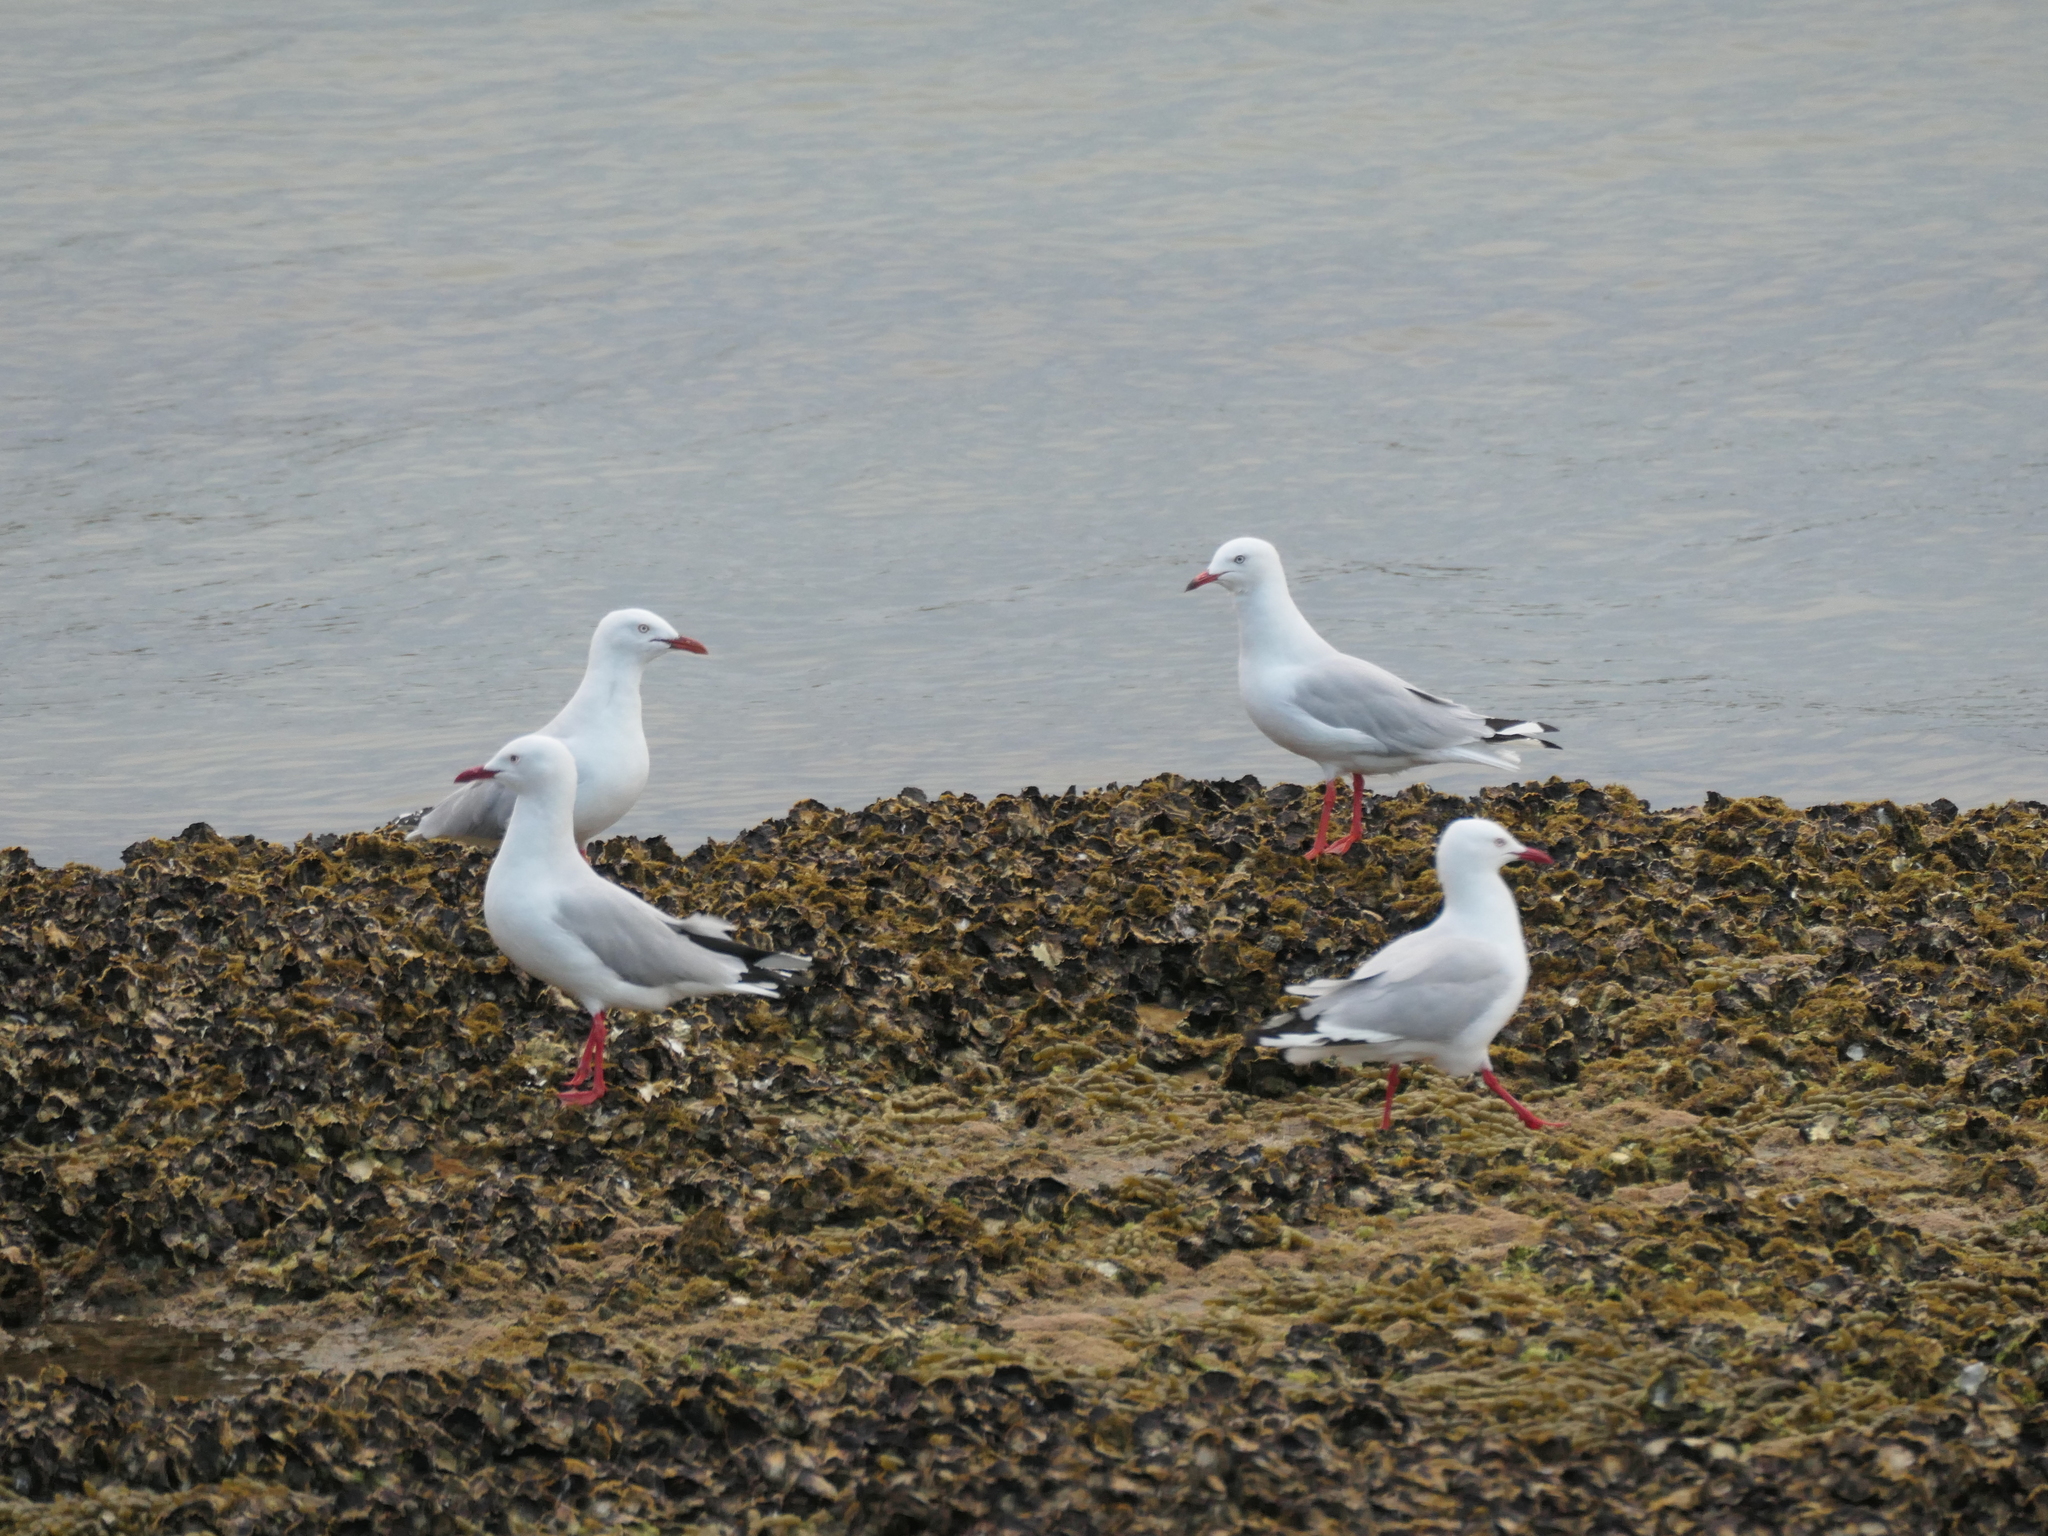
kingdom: Animalia
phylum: Chordata
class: Aves
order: Charadriiformes
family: Laridae
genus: Chroicocephalus
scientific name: Chroicocephalus novaehollandiae
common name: Silver gull
